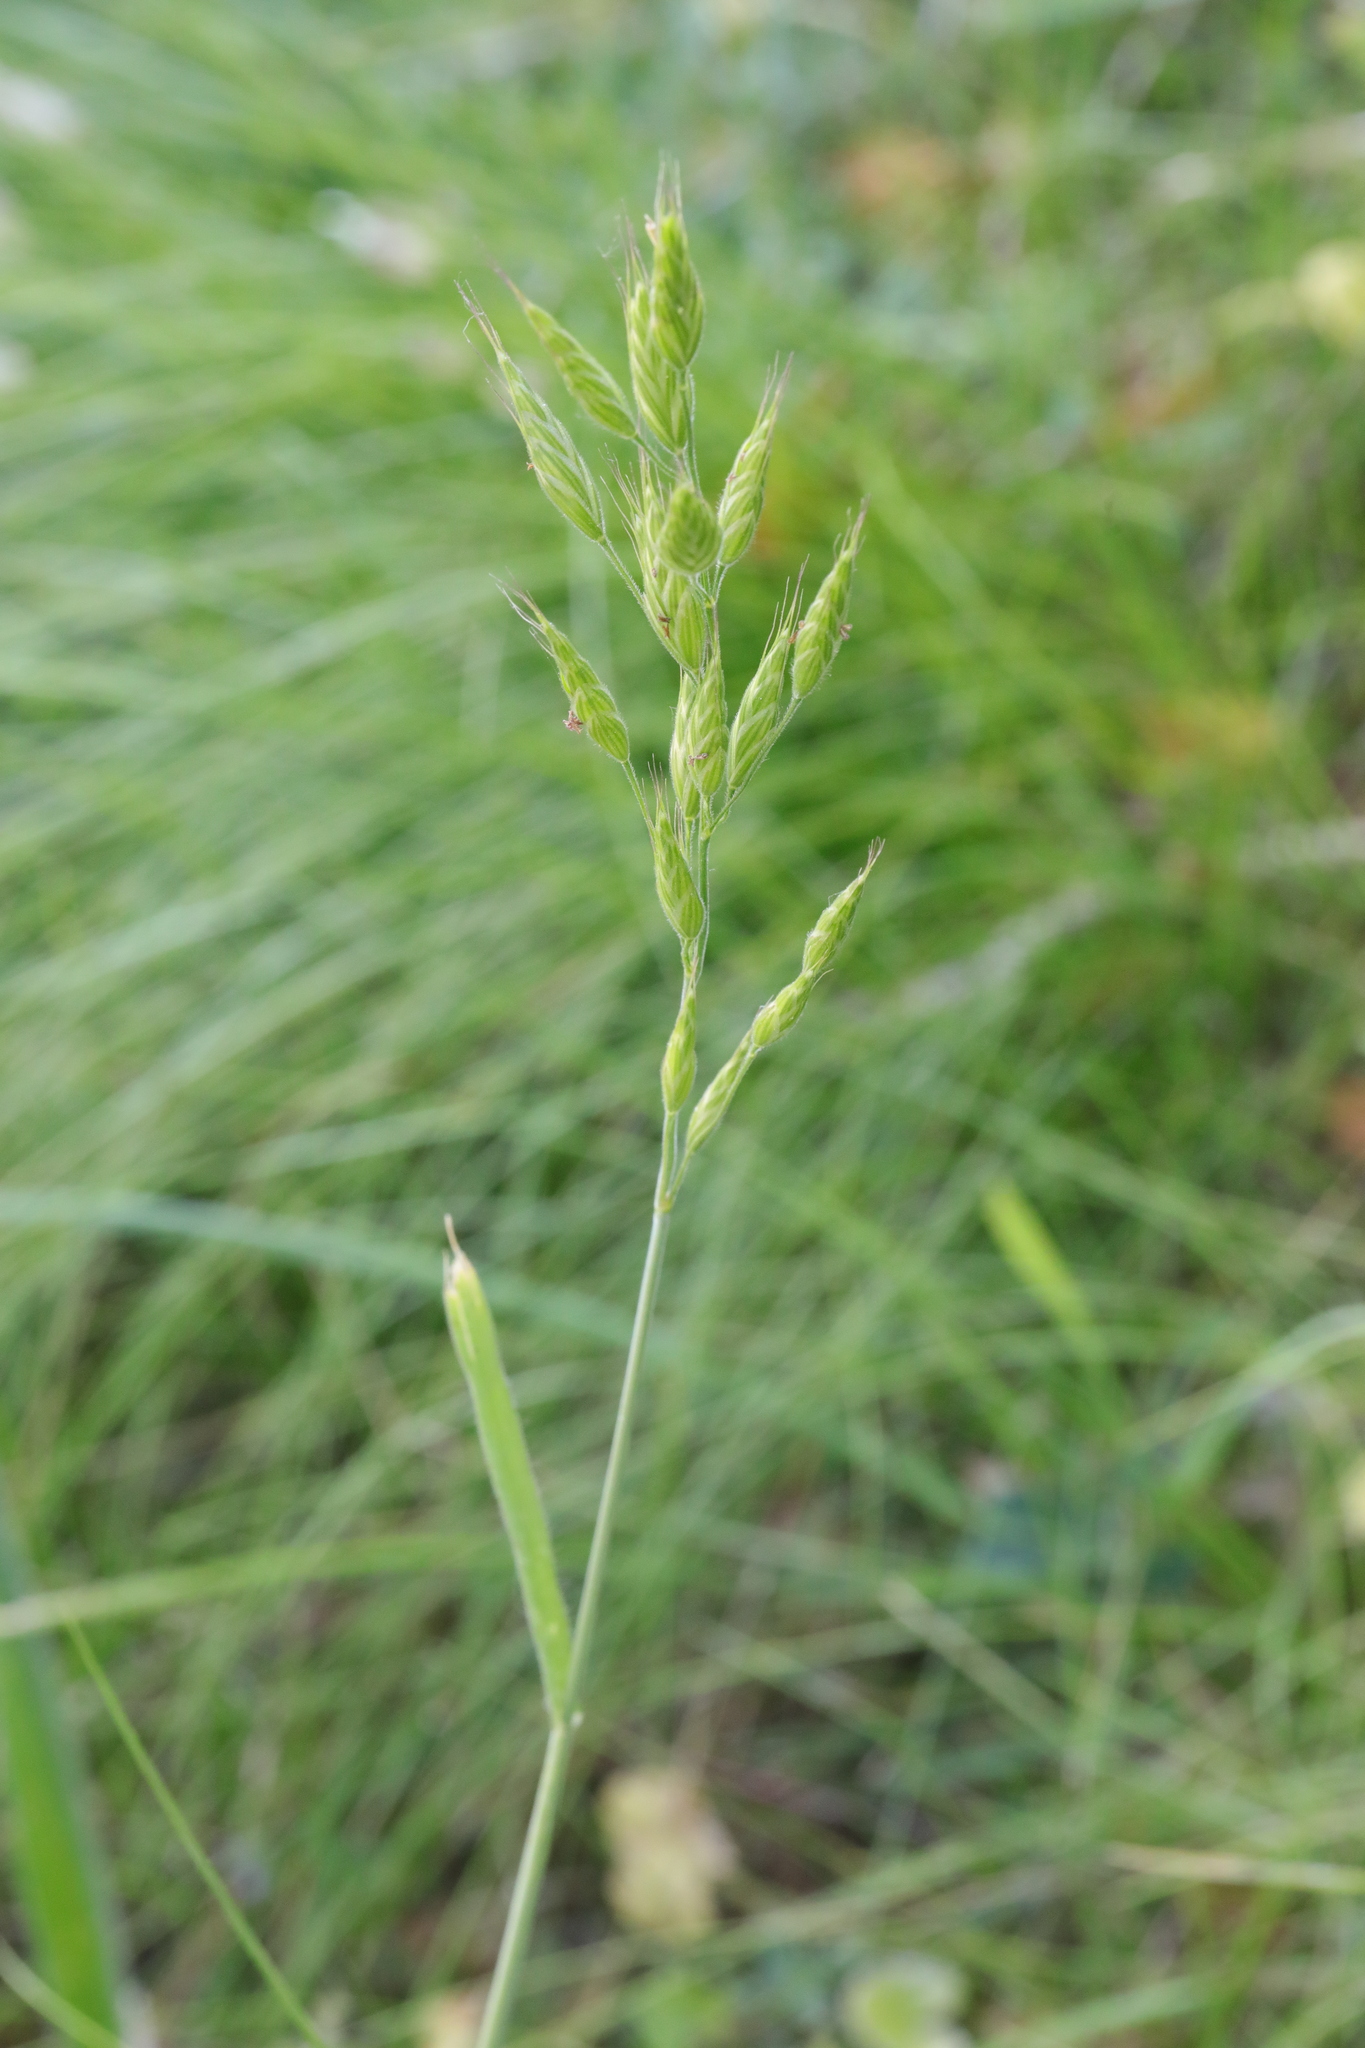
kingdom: Plantae
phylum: Tracheophyta
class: Liliopsida
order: Poales
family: Poaceae
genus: Bromus
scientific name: Bromus hordeaceus
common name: Soft brome
